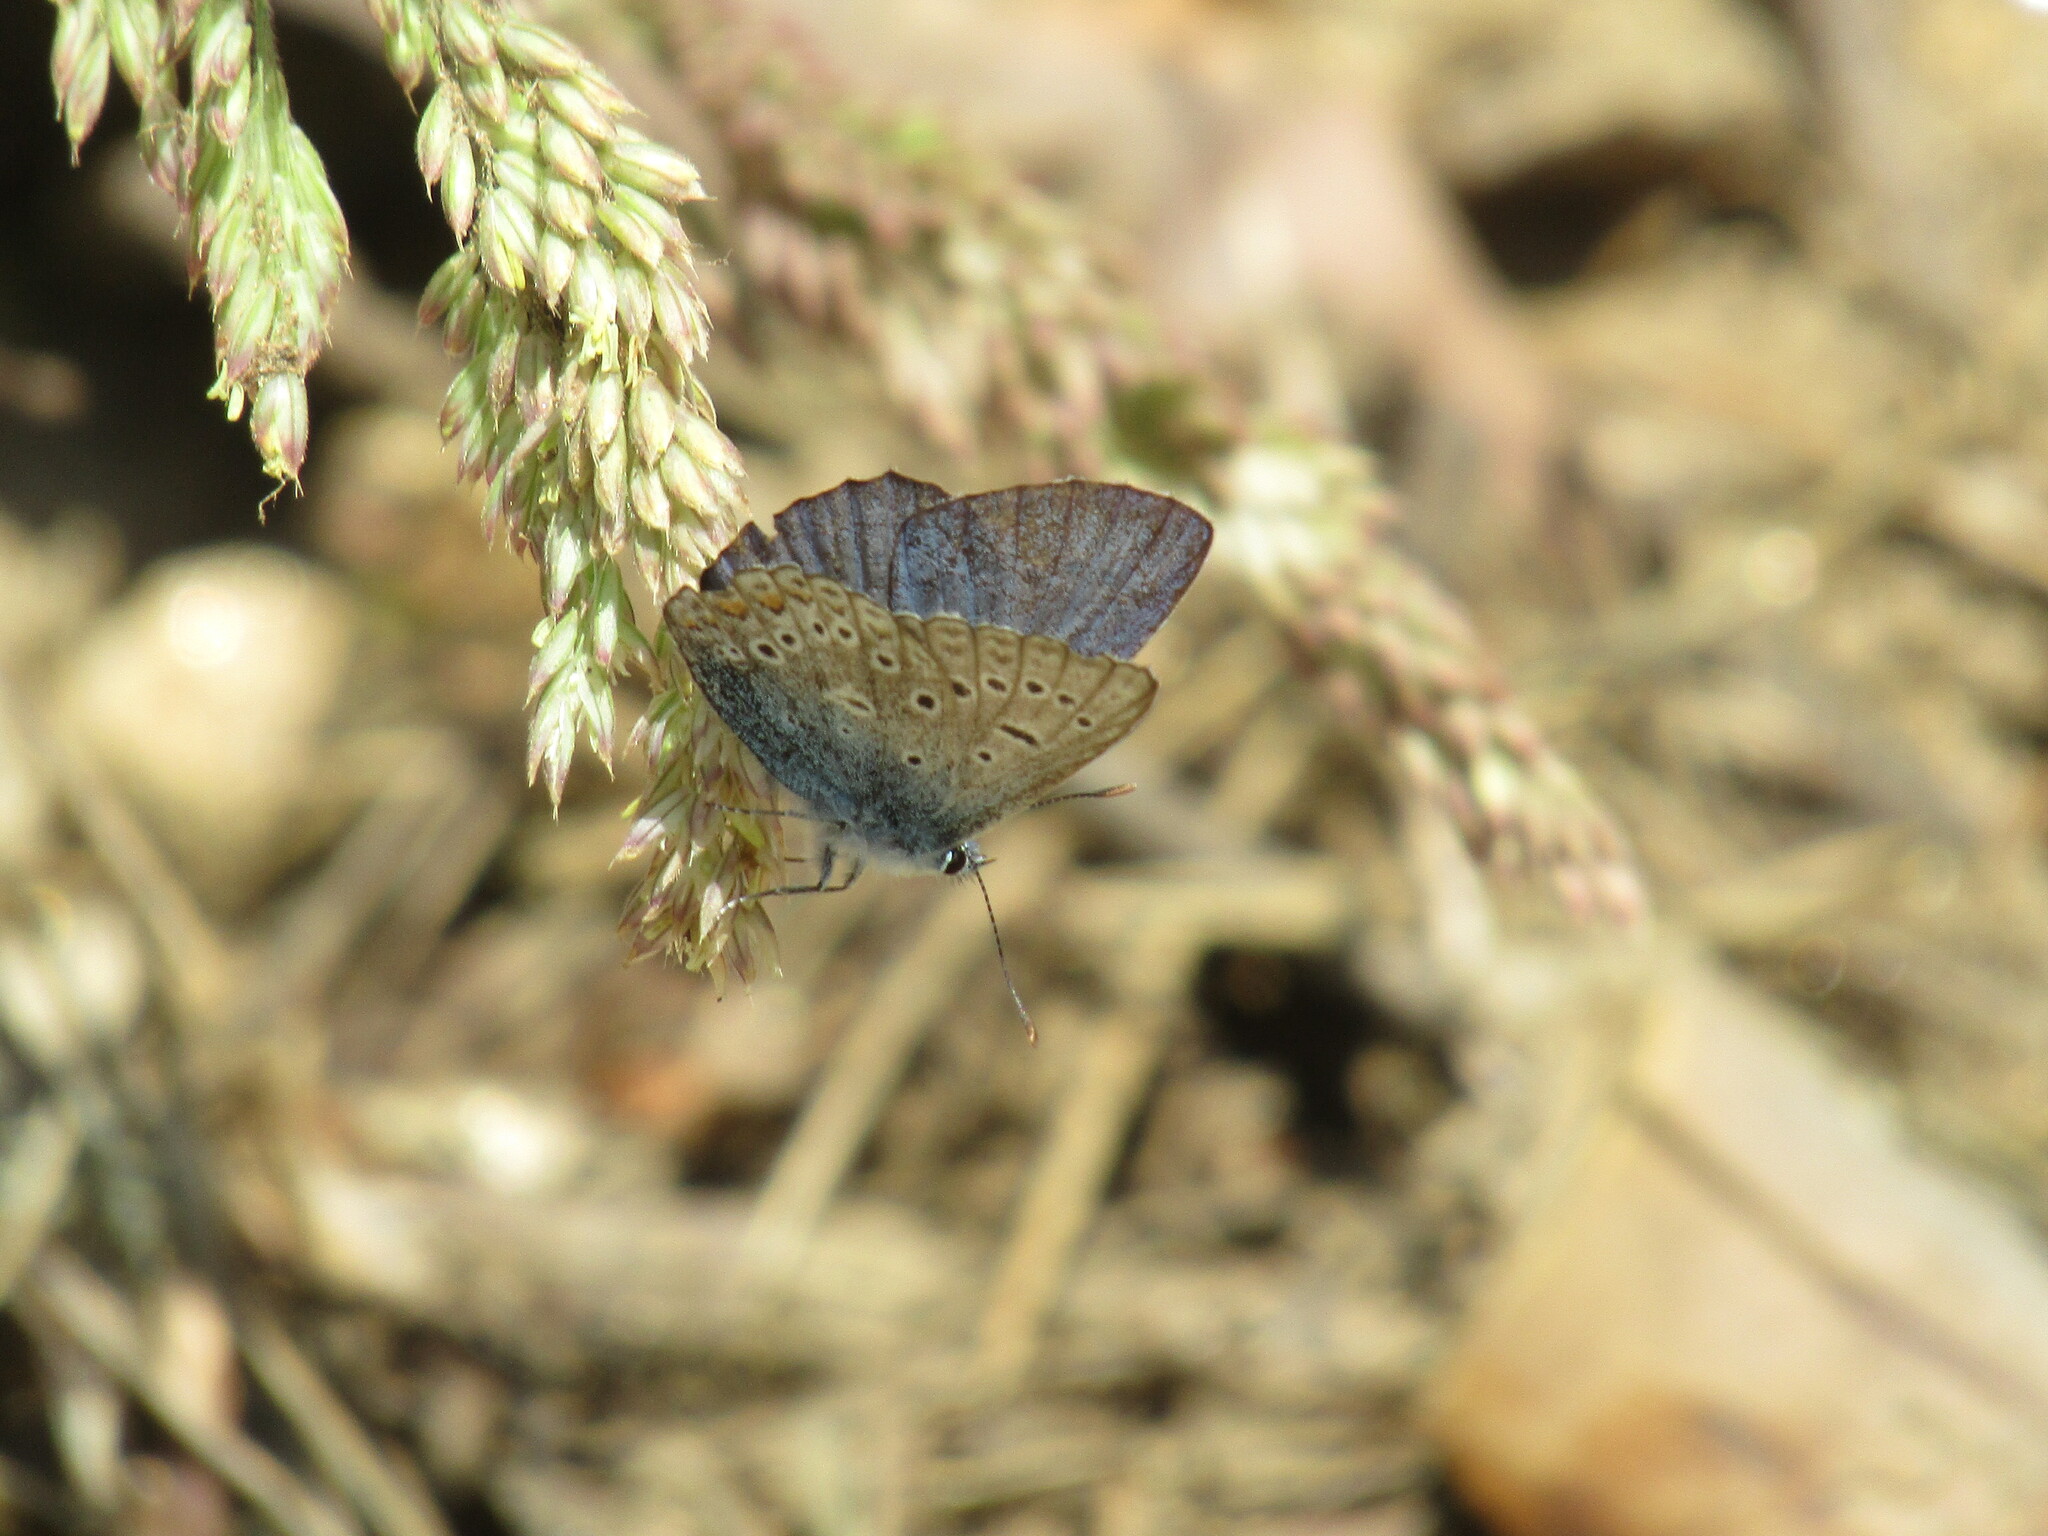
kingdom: Animalia
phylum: Arthropoda
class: Insecta
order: Lepidoptera
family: Lycaenidae
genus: Polyommatus
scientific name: Polyommatus icarus
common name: Common blue
